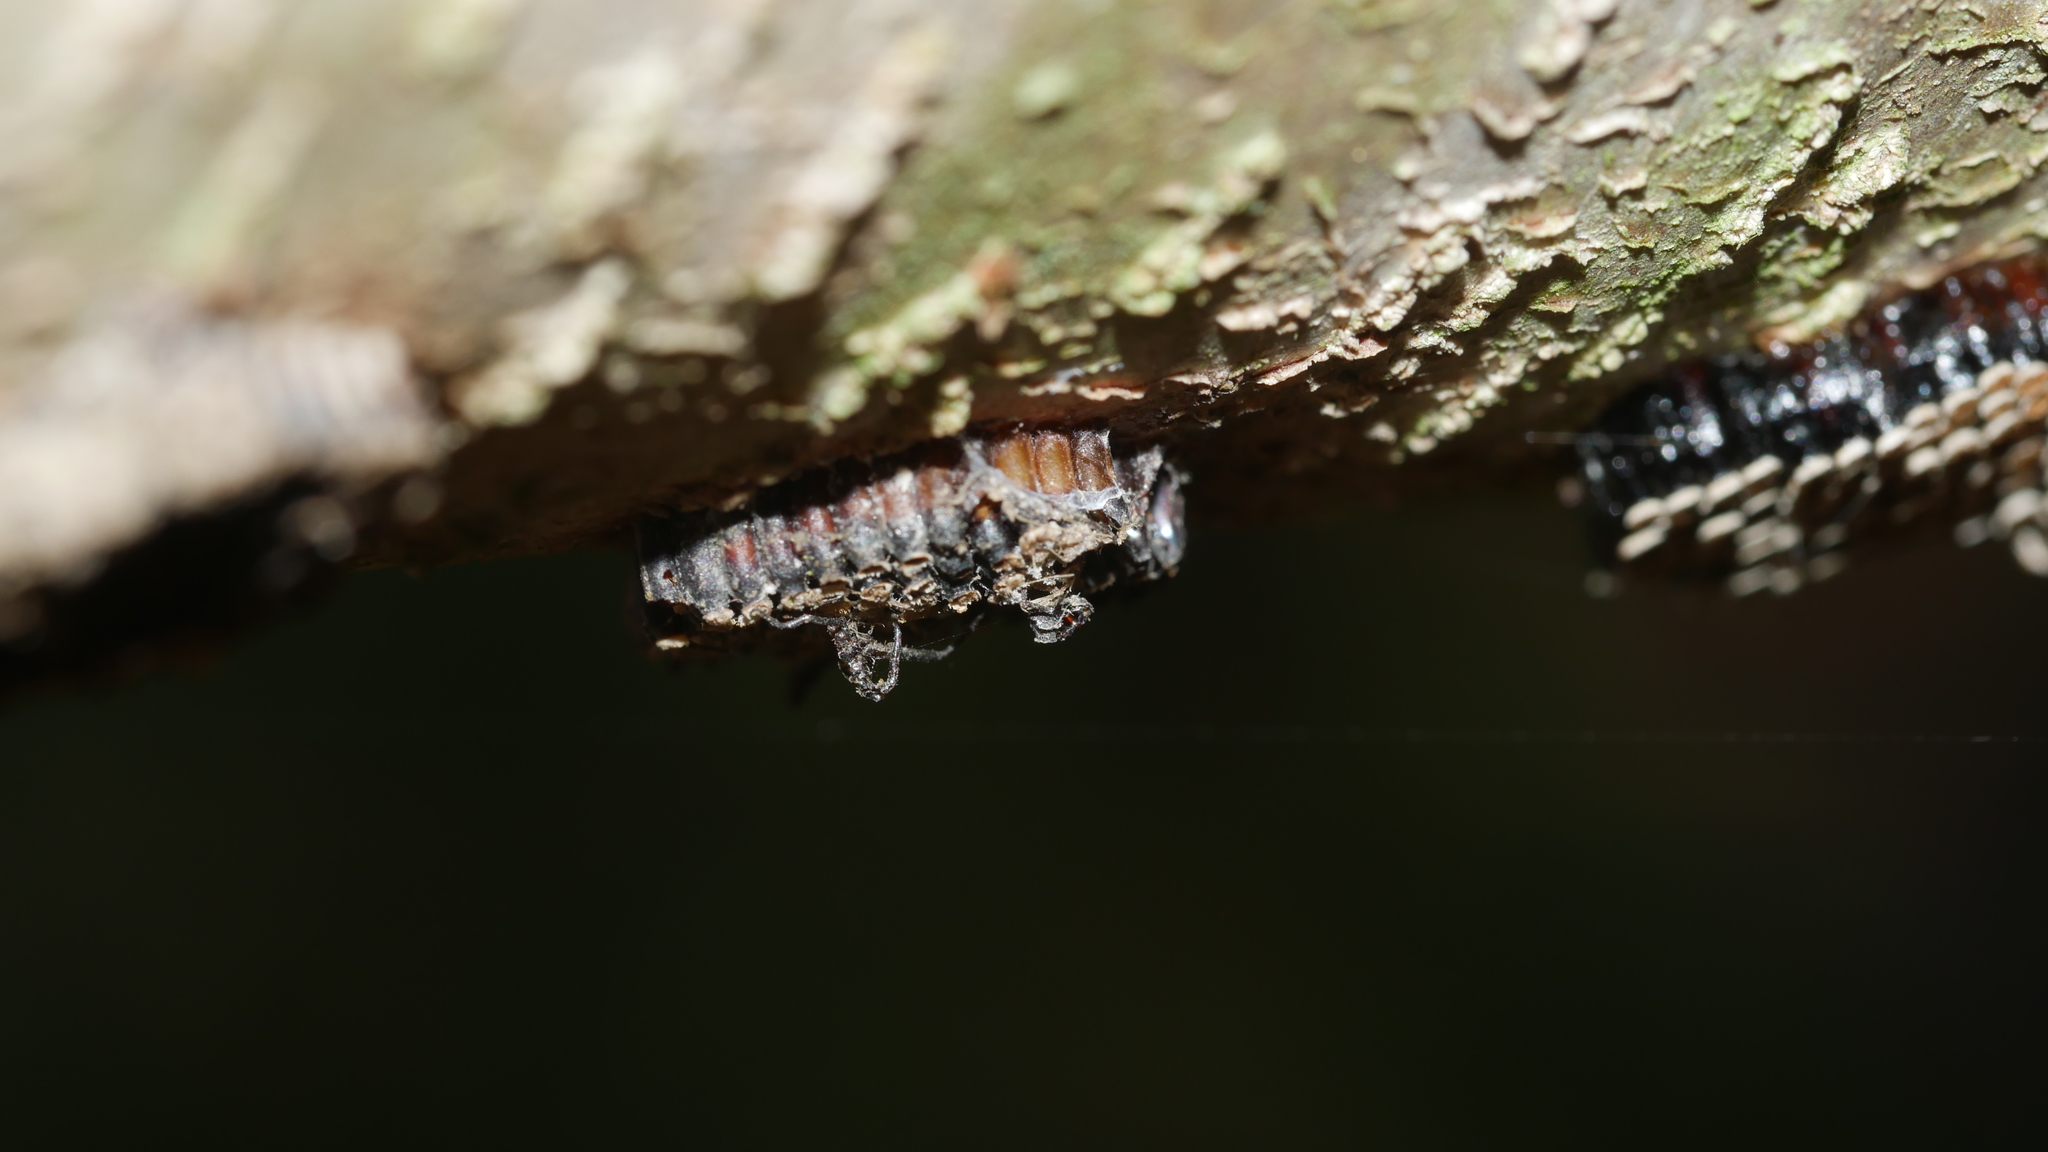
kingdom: Animalia
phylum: Arthropoda
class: Insecta
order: Hemiptera
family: Reduviidae
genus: Arilus
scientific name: Arilus cristatus
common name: North american wheel bug
